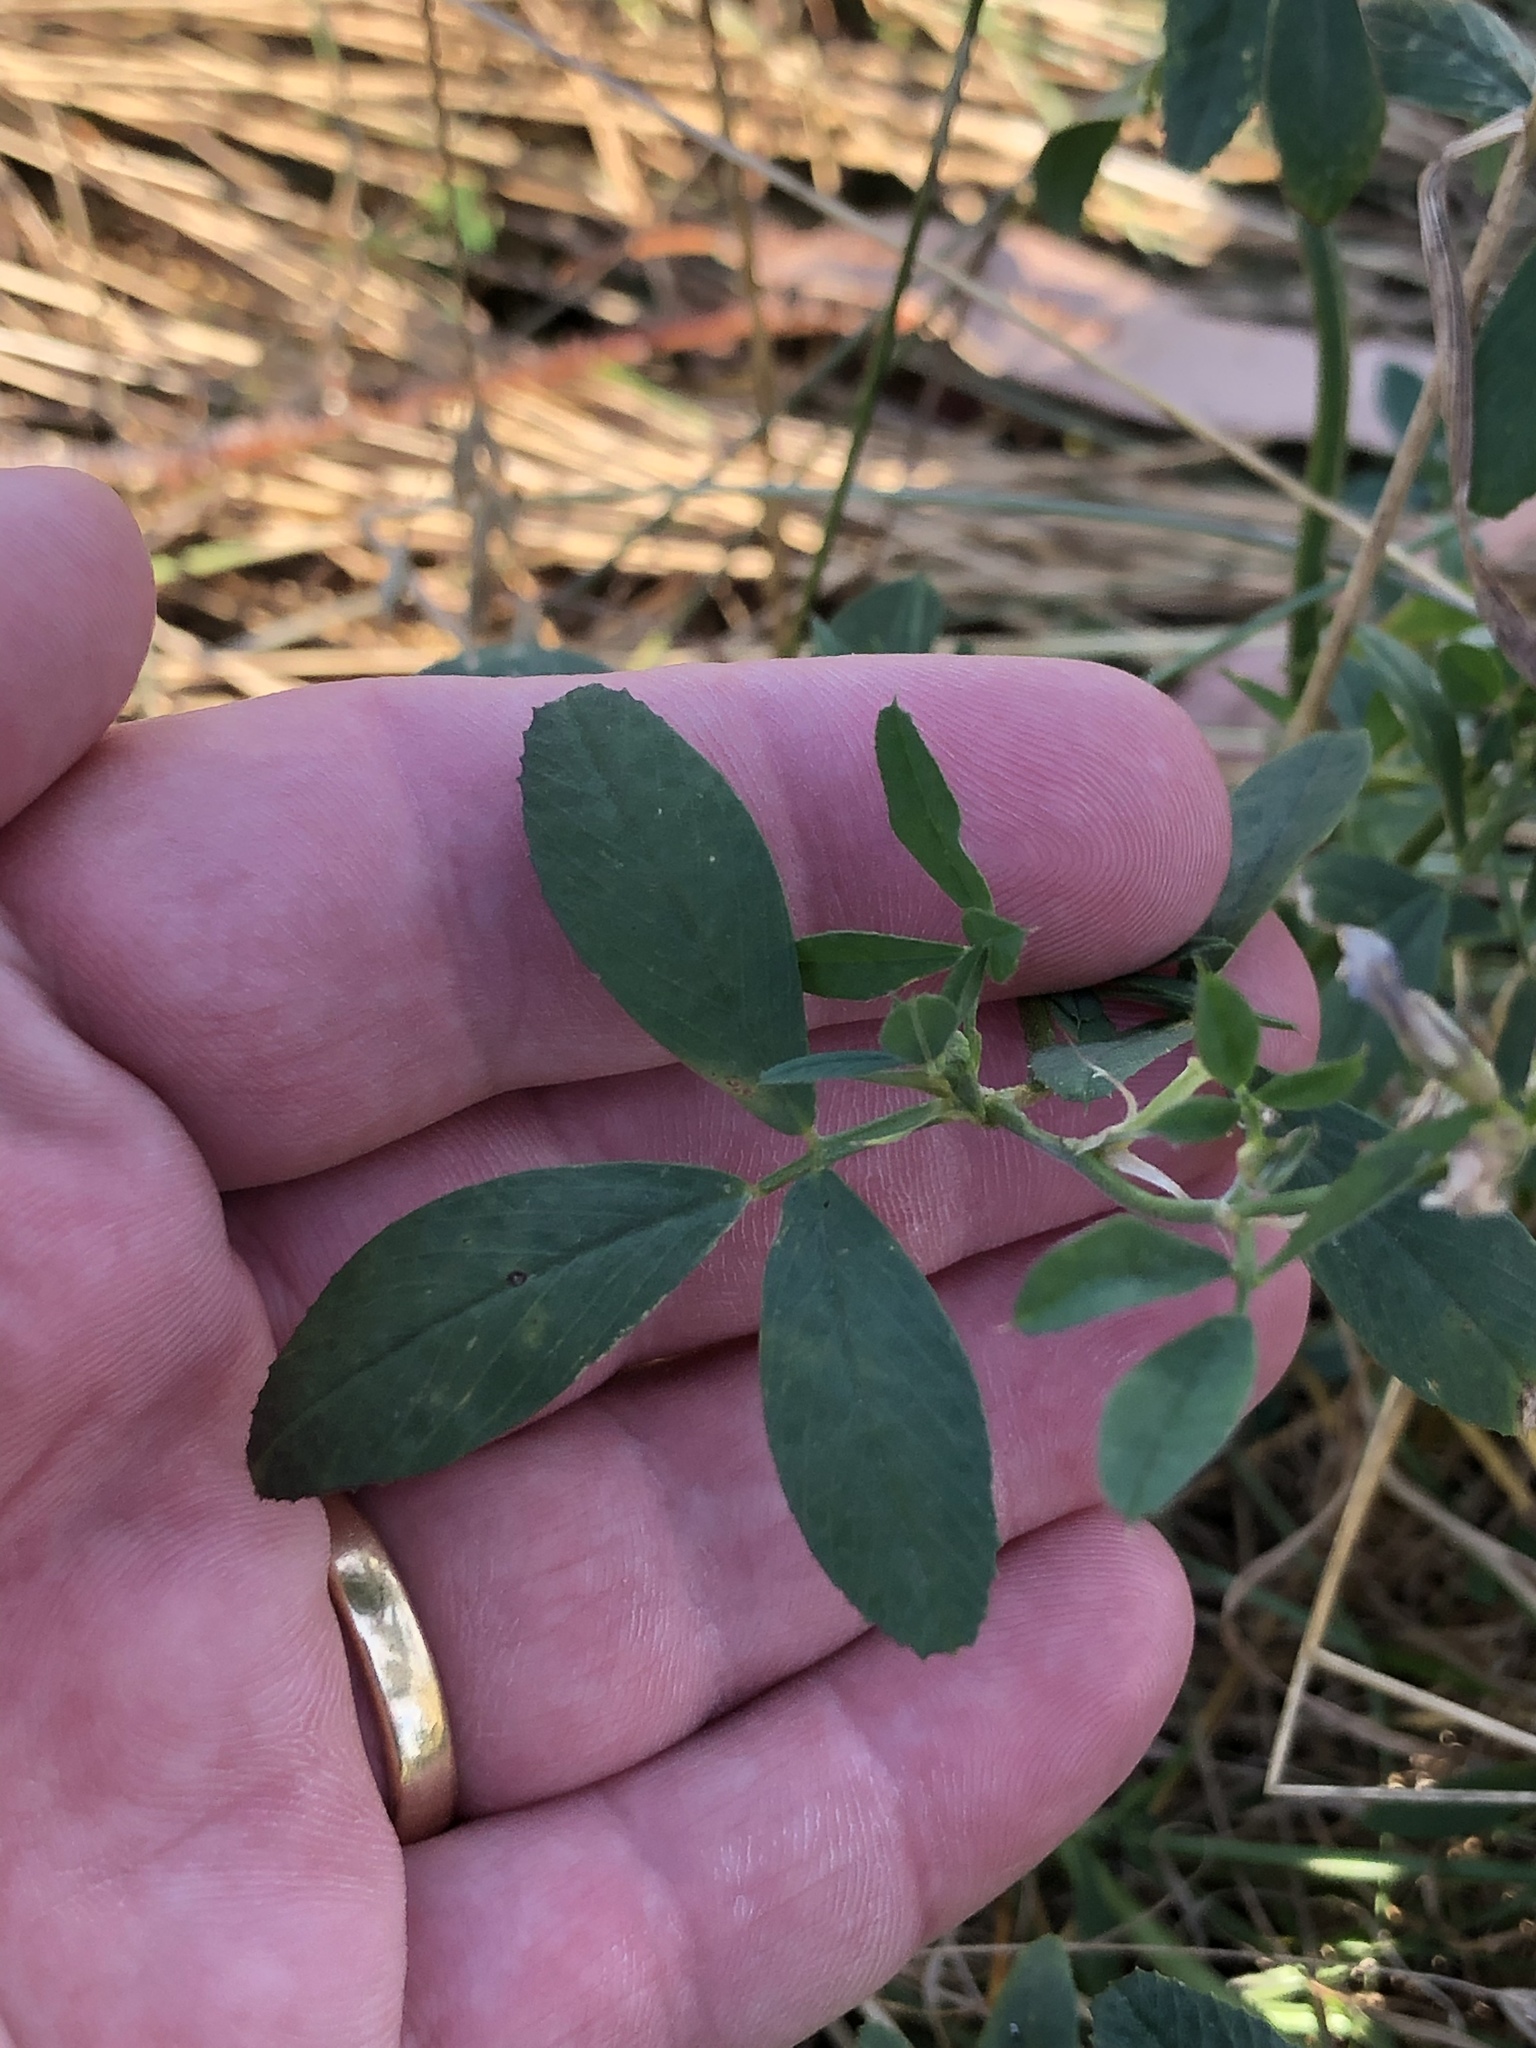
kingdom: Plantae
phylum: Tracheophyta
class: Magnoliopsida
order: Fabales
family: Fabaceae
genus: Medicago
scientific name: Medicago sativa
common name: Alfalfa
